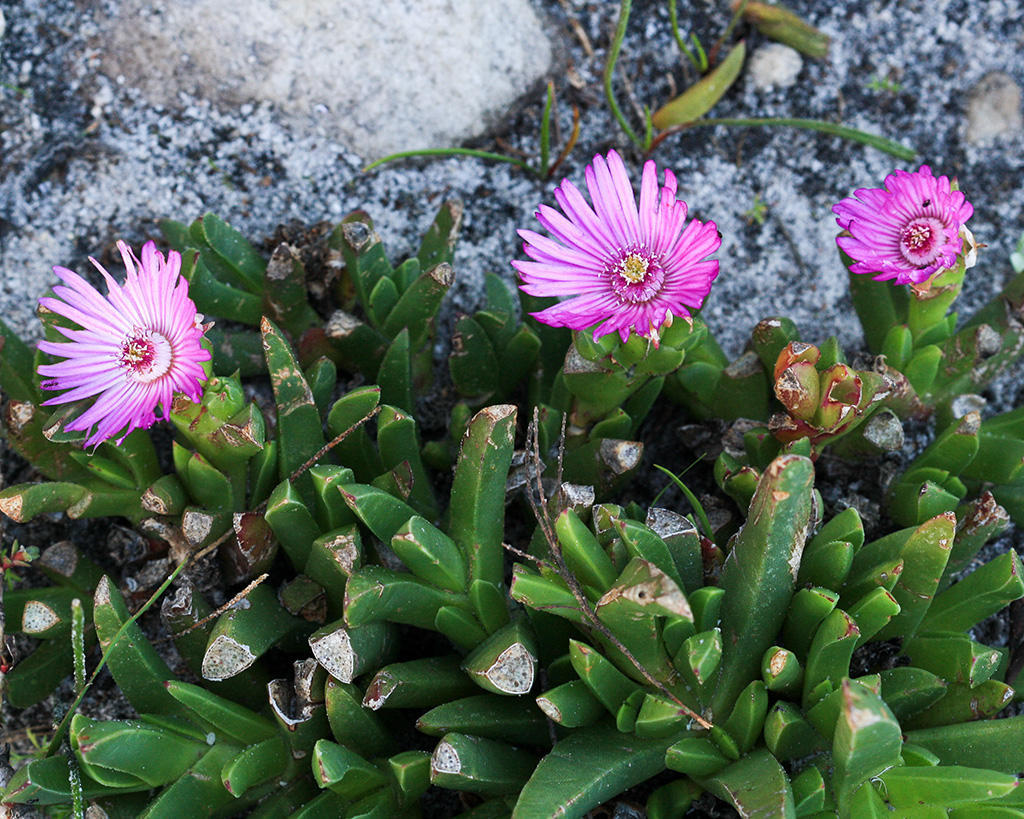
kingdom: Plantae
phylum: Tracheophyta
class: Magnoliopsida
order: Caryophyllales
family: Aizoaceae
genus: Ruschia
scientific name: Ruschia schollii
